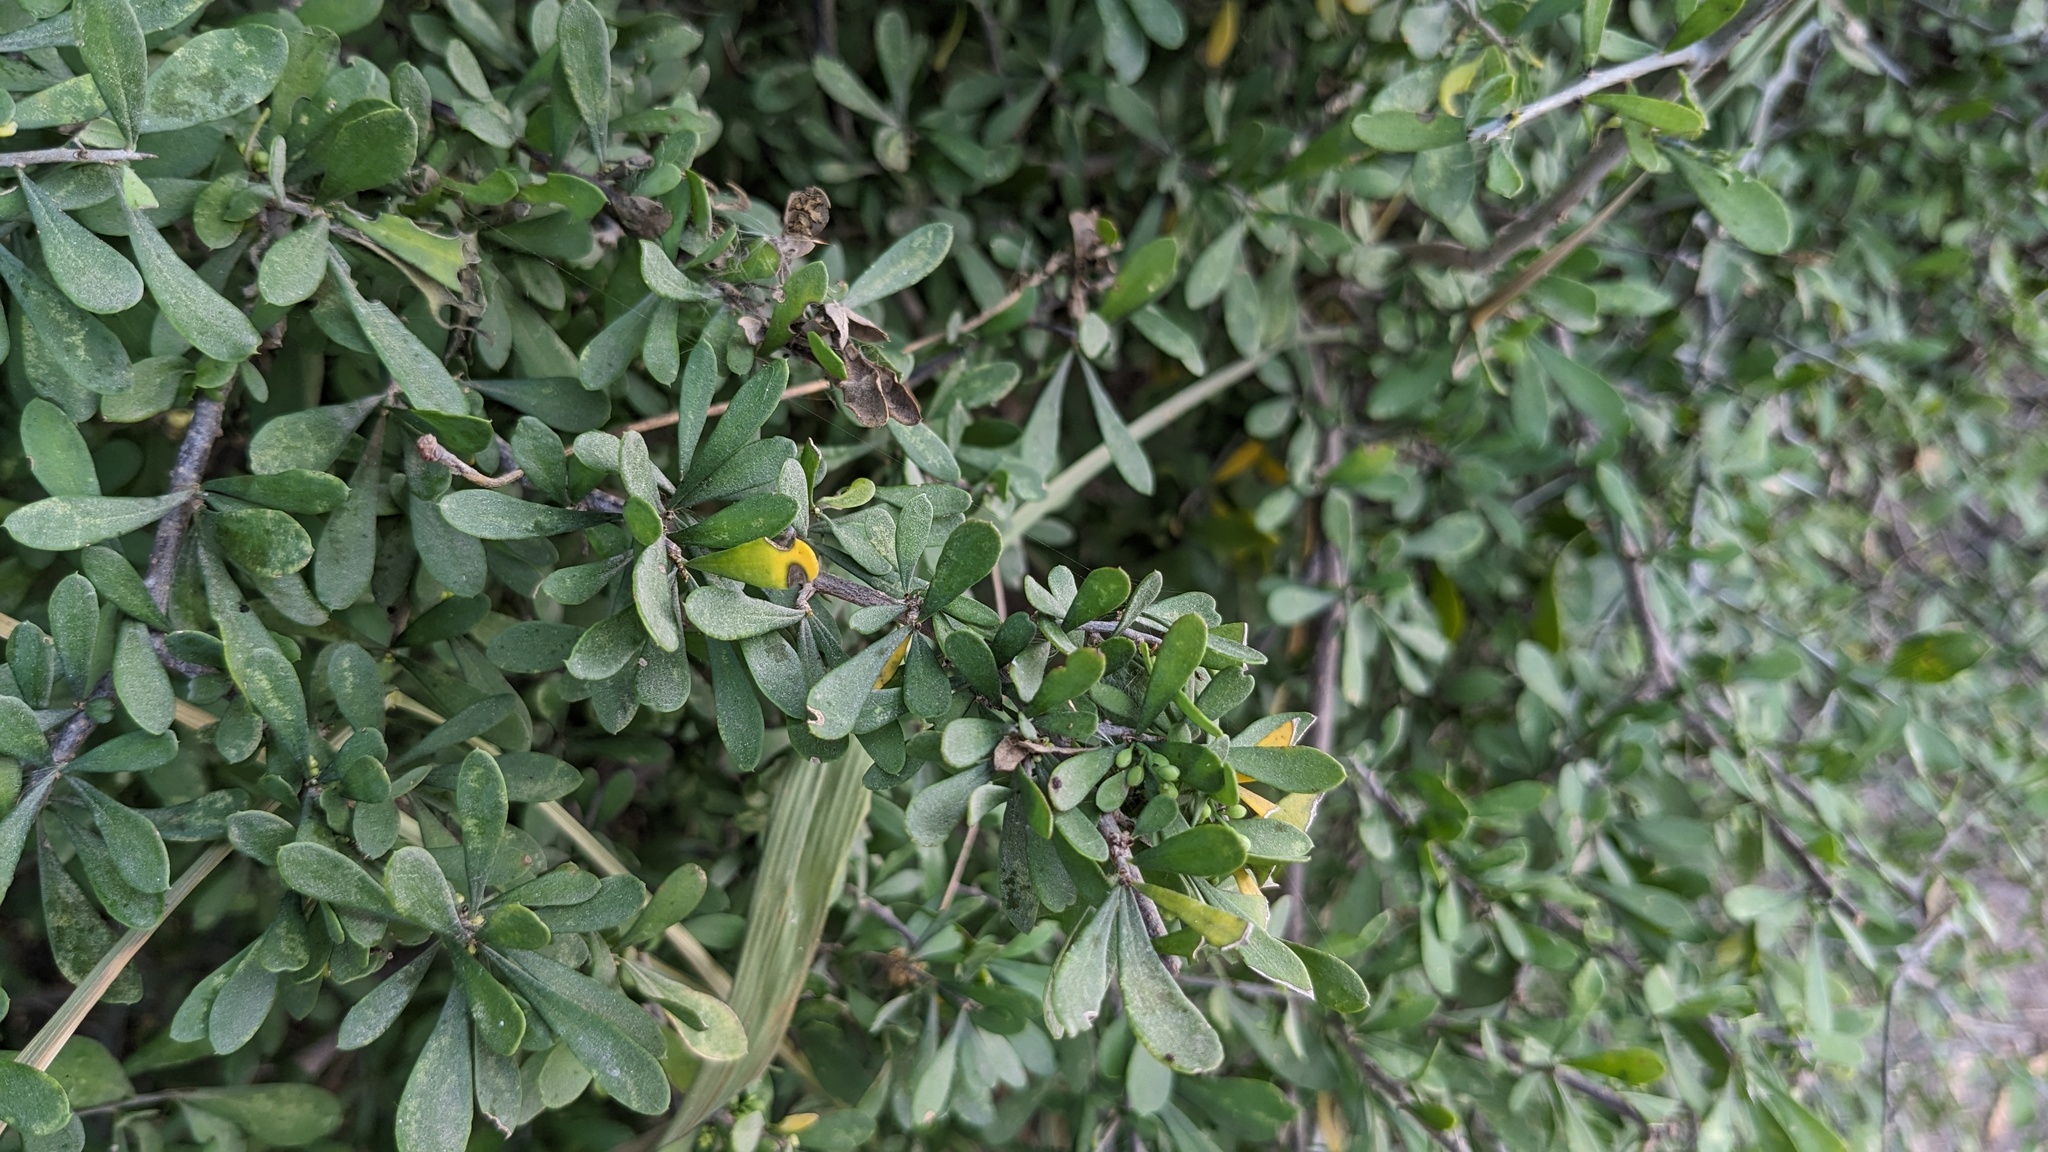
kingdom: Plantae
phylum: Tracheophyta
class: Magnoliopsida
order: Caryophyllales
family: Achatocarpaceae
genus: Phaulothamnus
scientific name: Phaulothamnus spinescens
